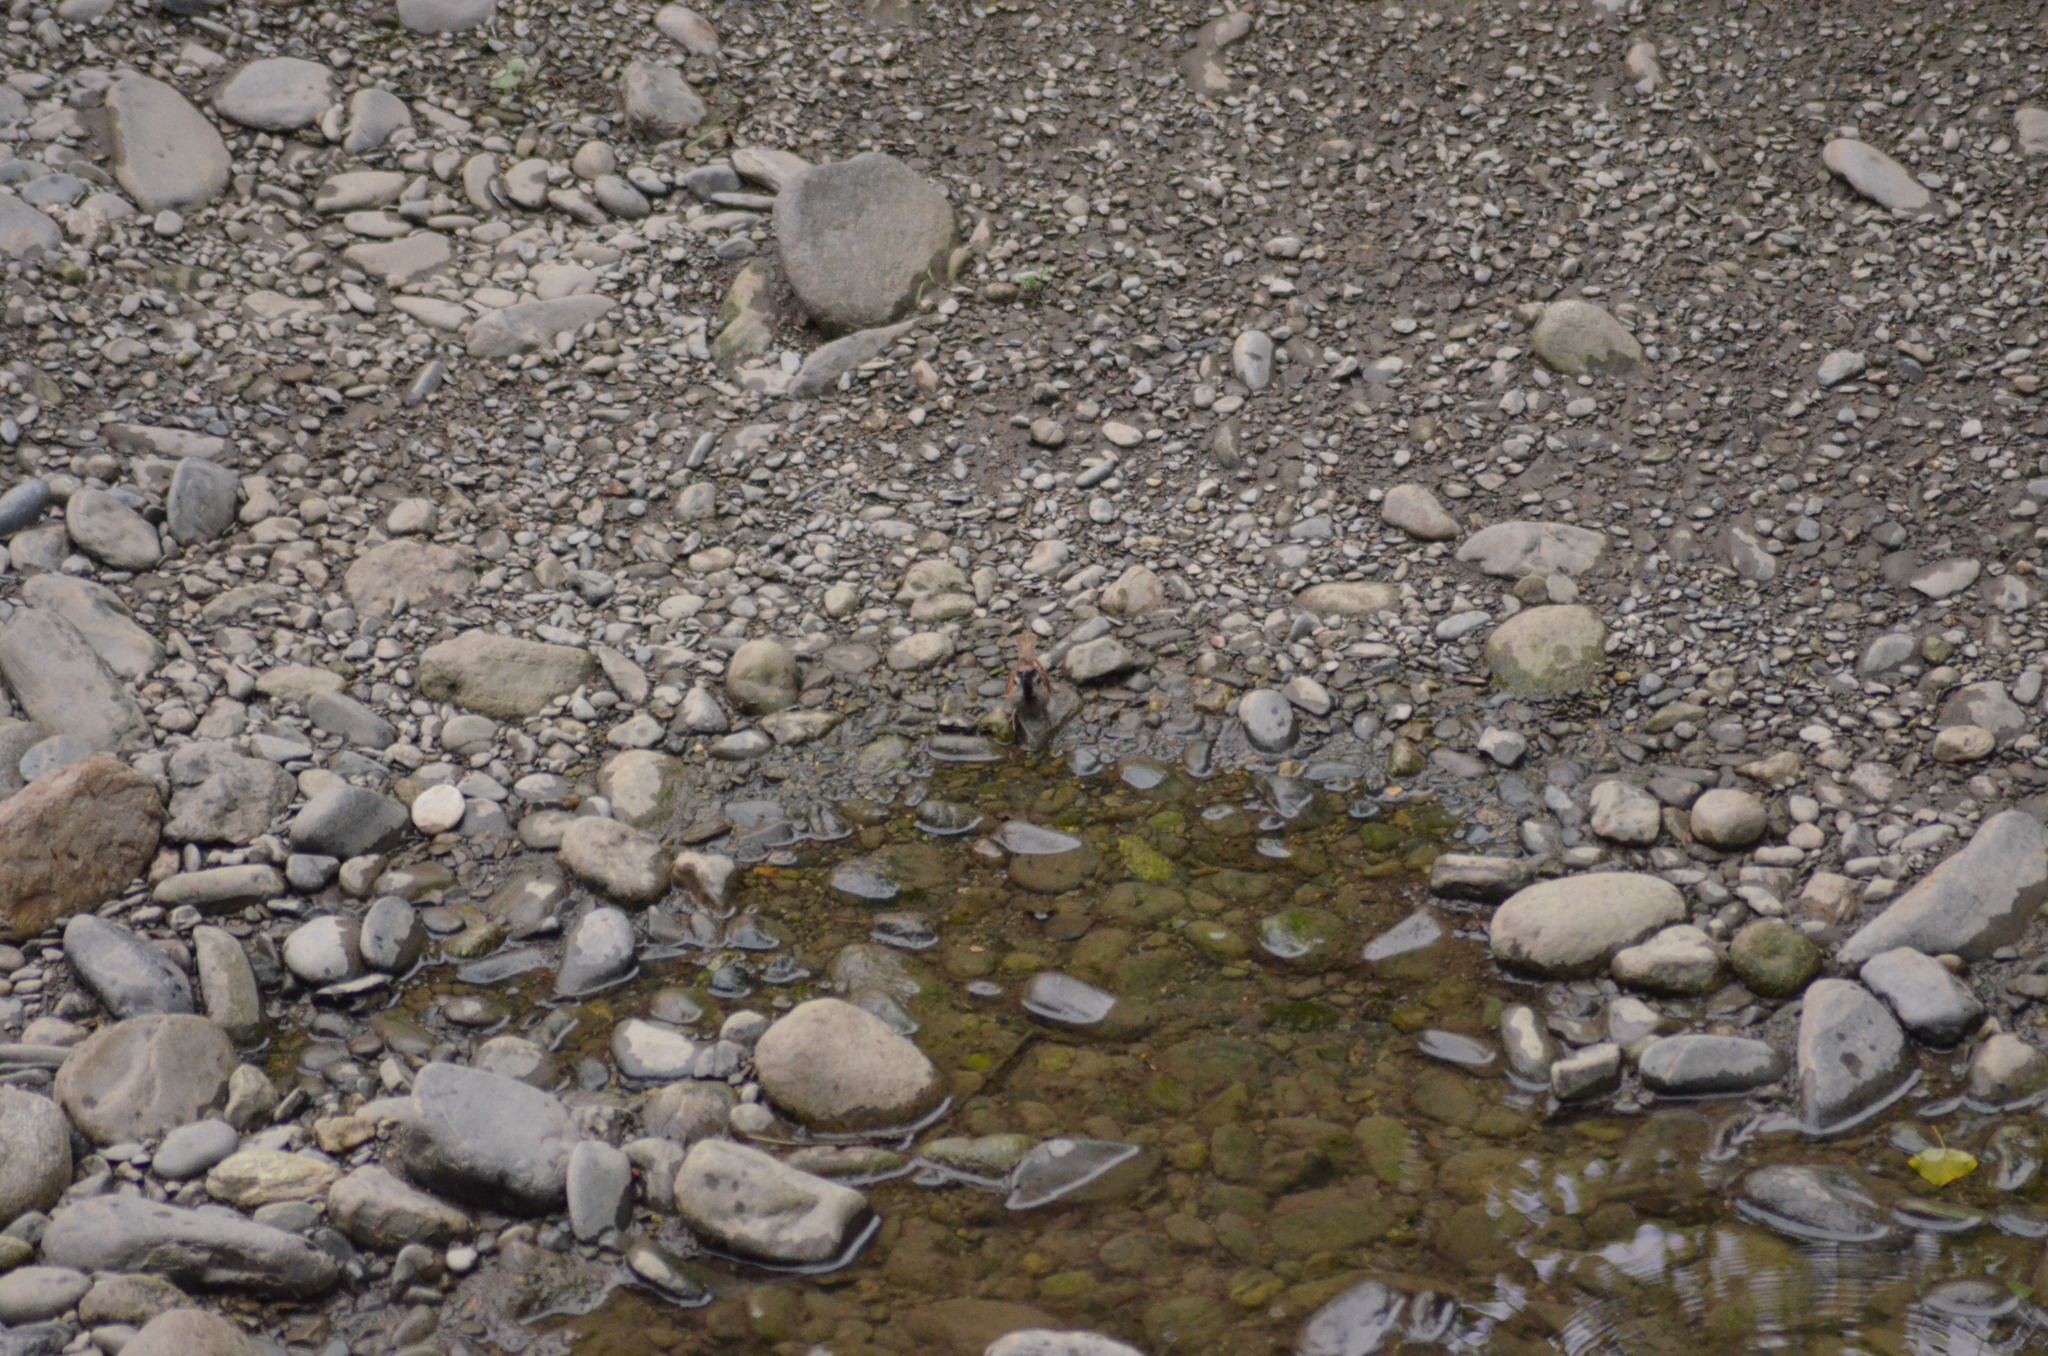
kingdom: Animalia
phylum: Chordata
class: Aves
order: Passeriformes
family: Passeridae
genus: Passer
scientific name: Passer montanus
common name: Eurasian tree sparrow
